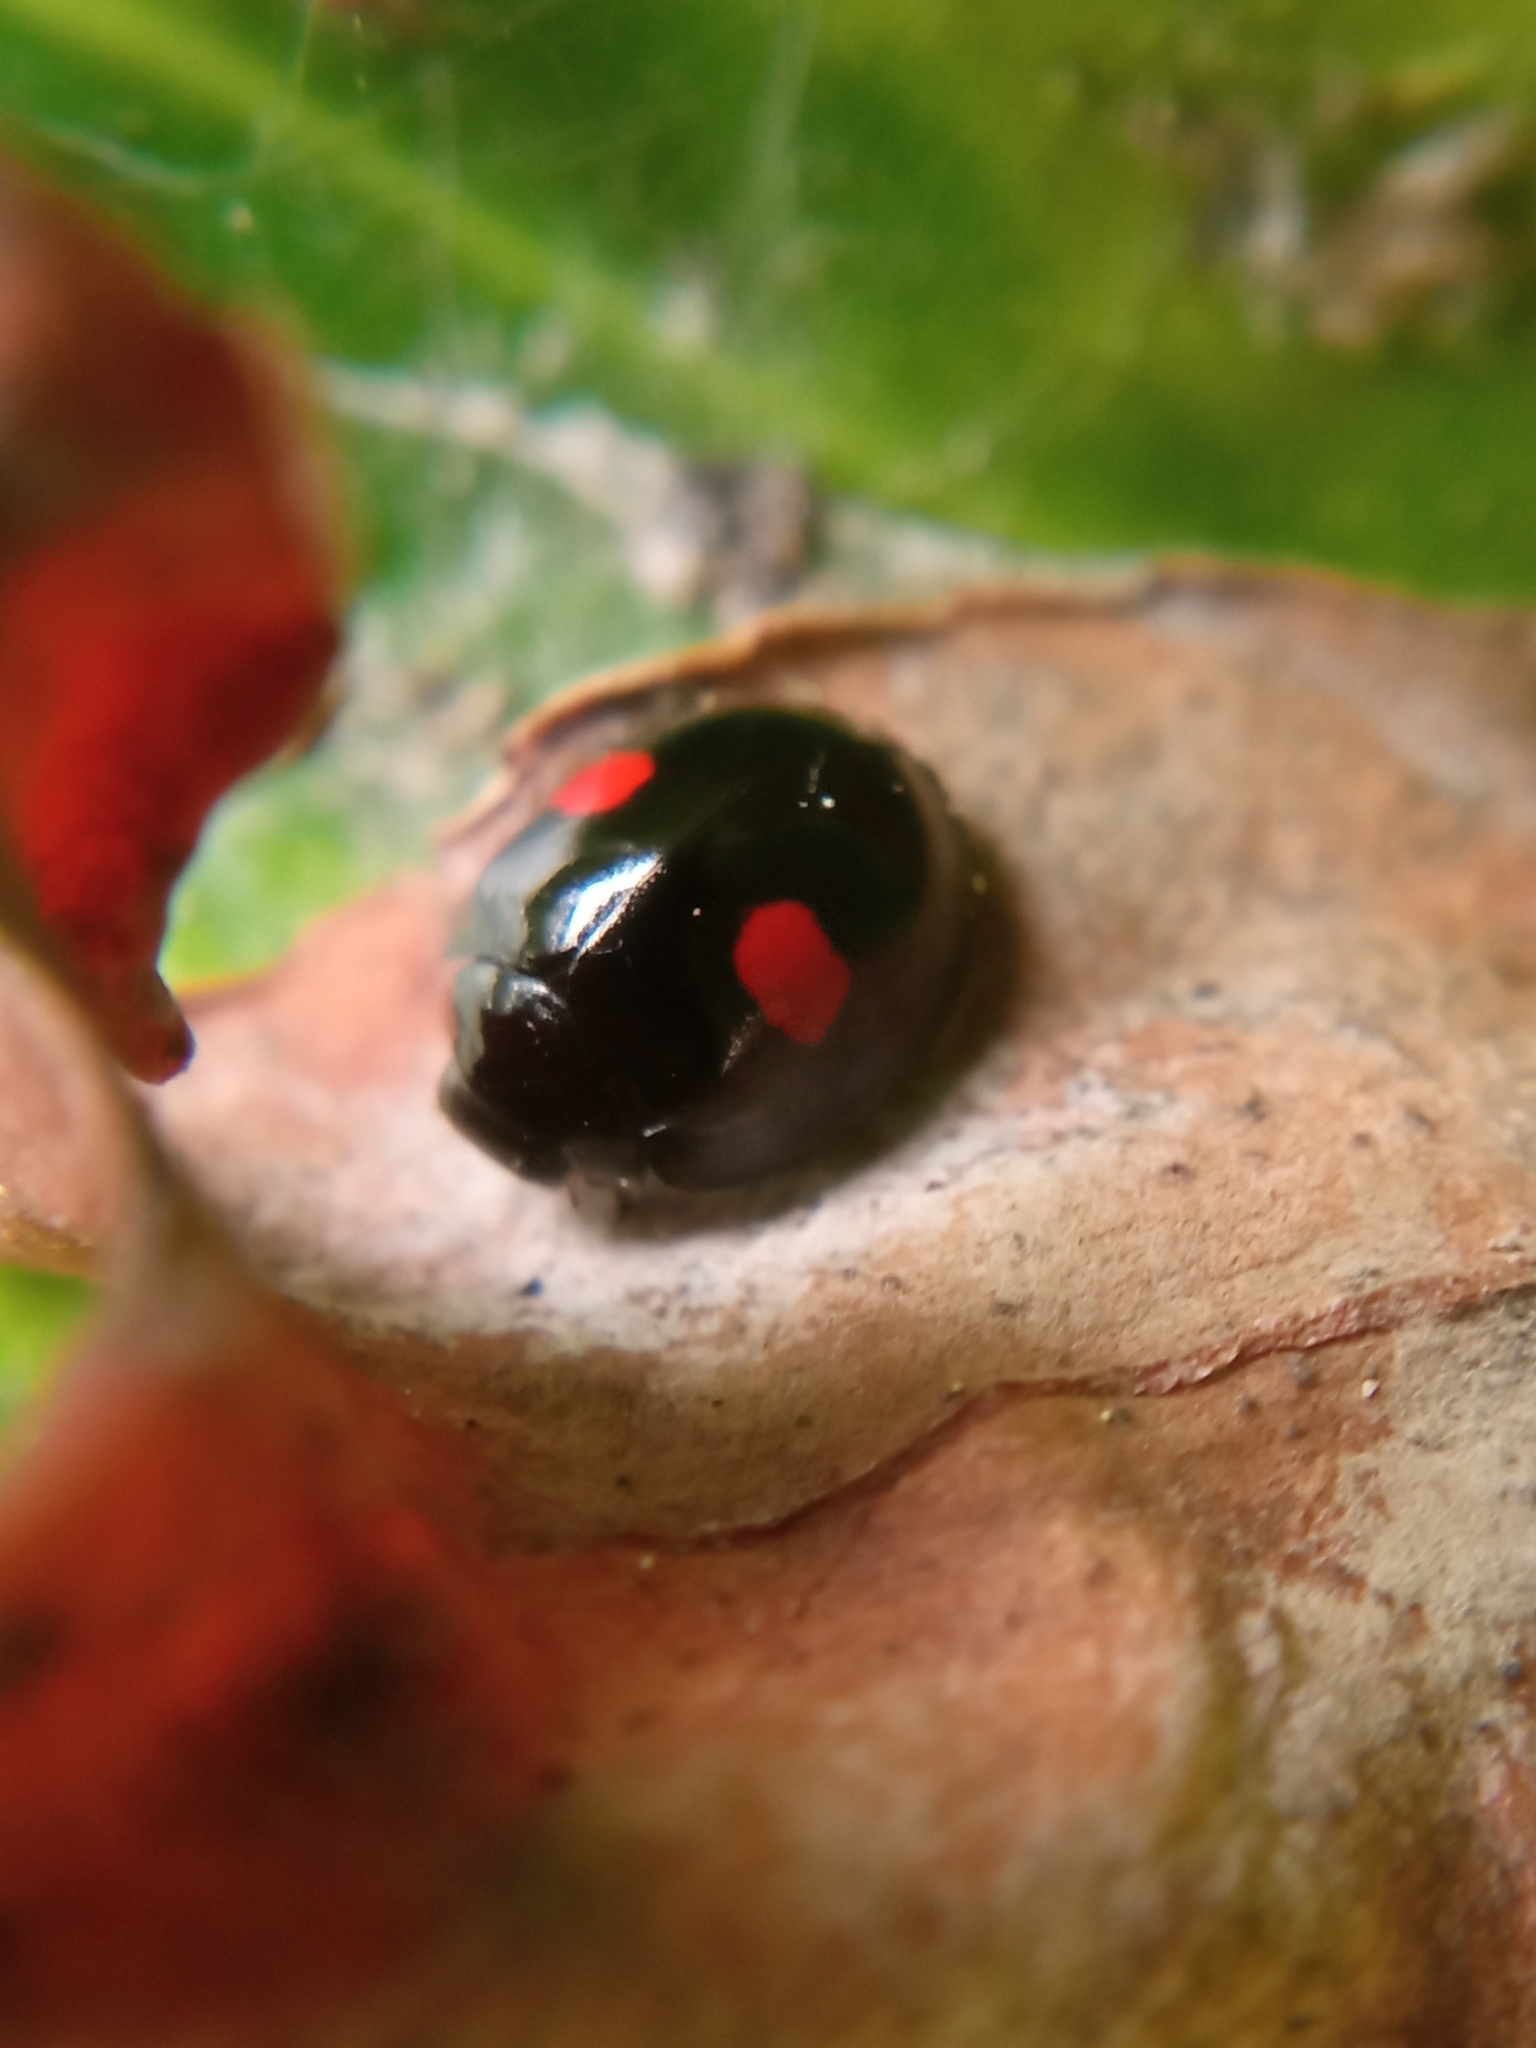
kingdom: Animalia
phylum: Arthropoda
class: Insecta
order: Coleoptera
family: Coccinellidae
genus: Chilocorus
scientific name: Chilocorus renipustulatus
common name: Kidney-spot ladybird
